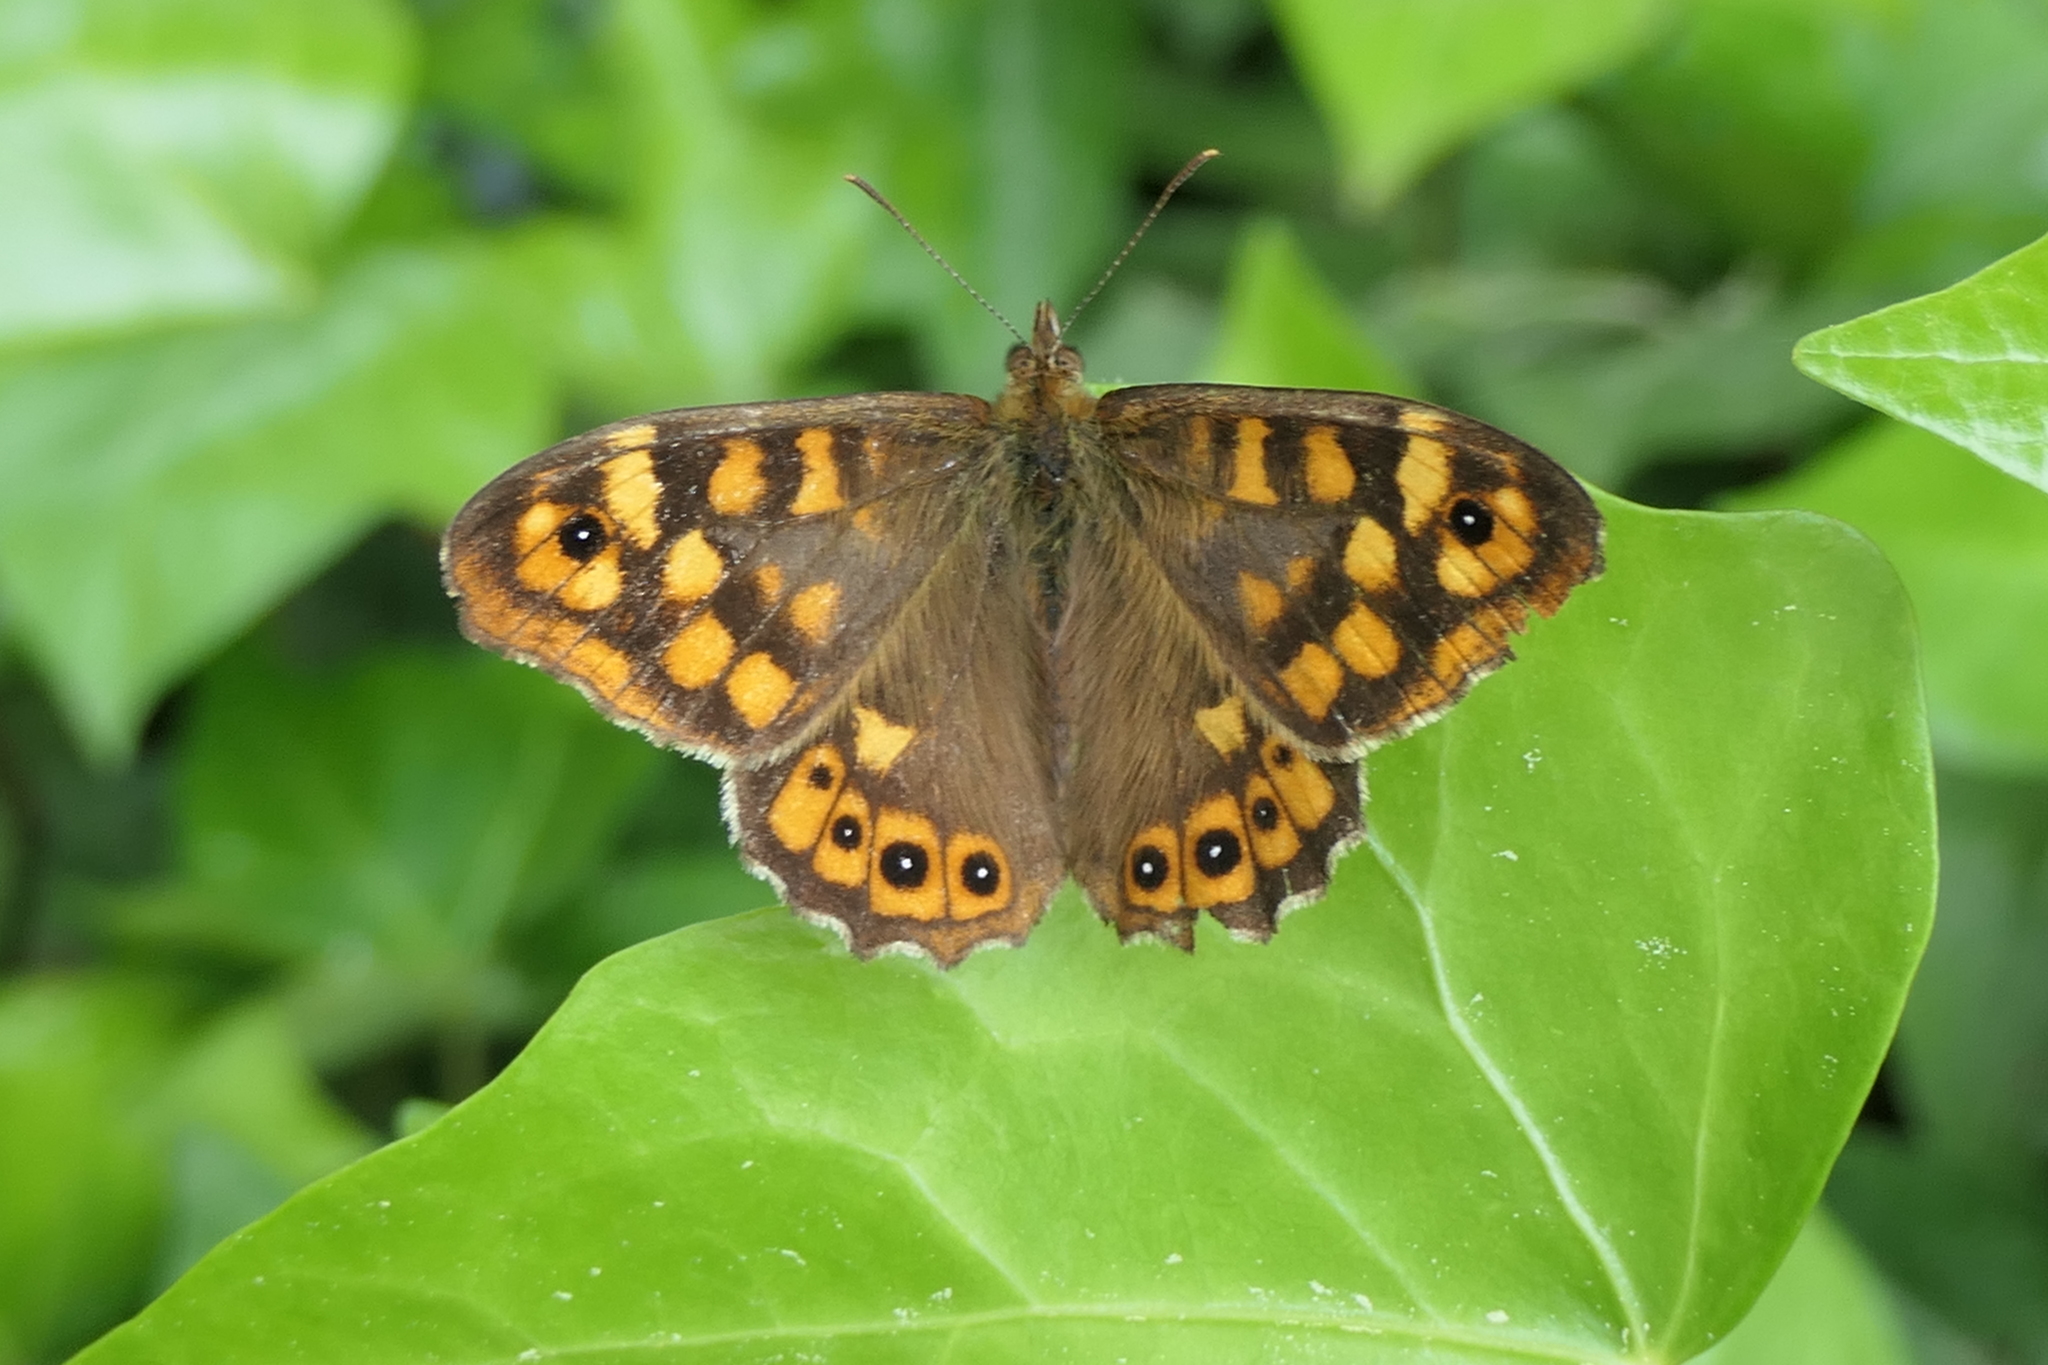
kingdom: Animalia
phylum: Arthropoda
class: Insecta
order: Lepidoptera
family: Nymphalidae
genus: Pararge
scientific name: Pararge aegeria
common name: Speckled wood
